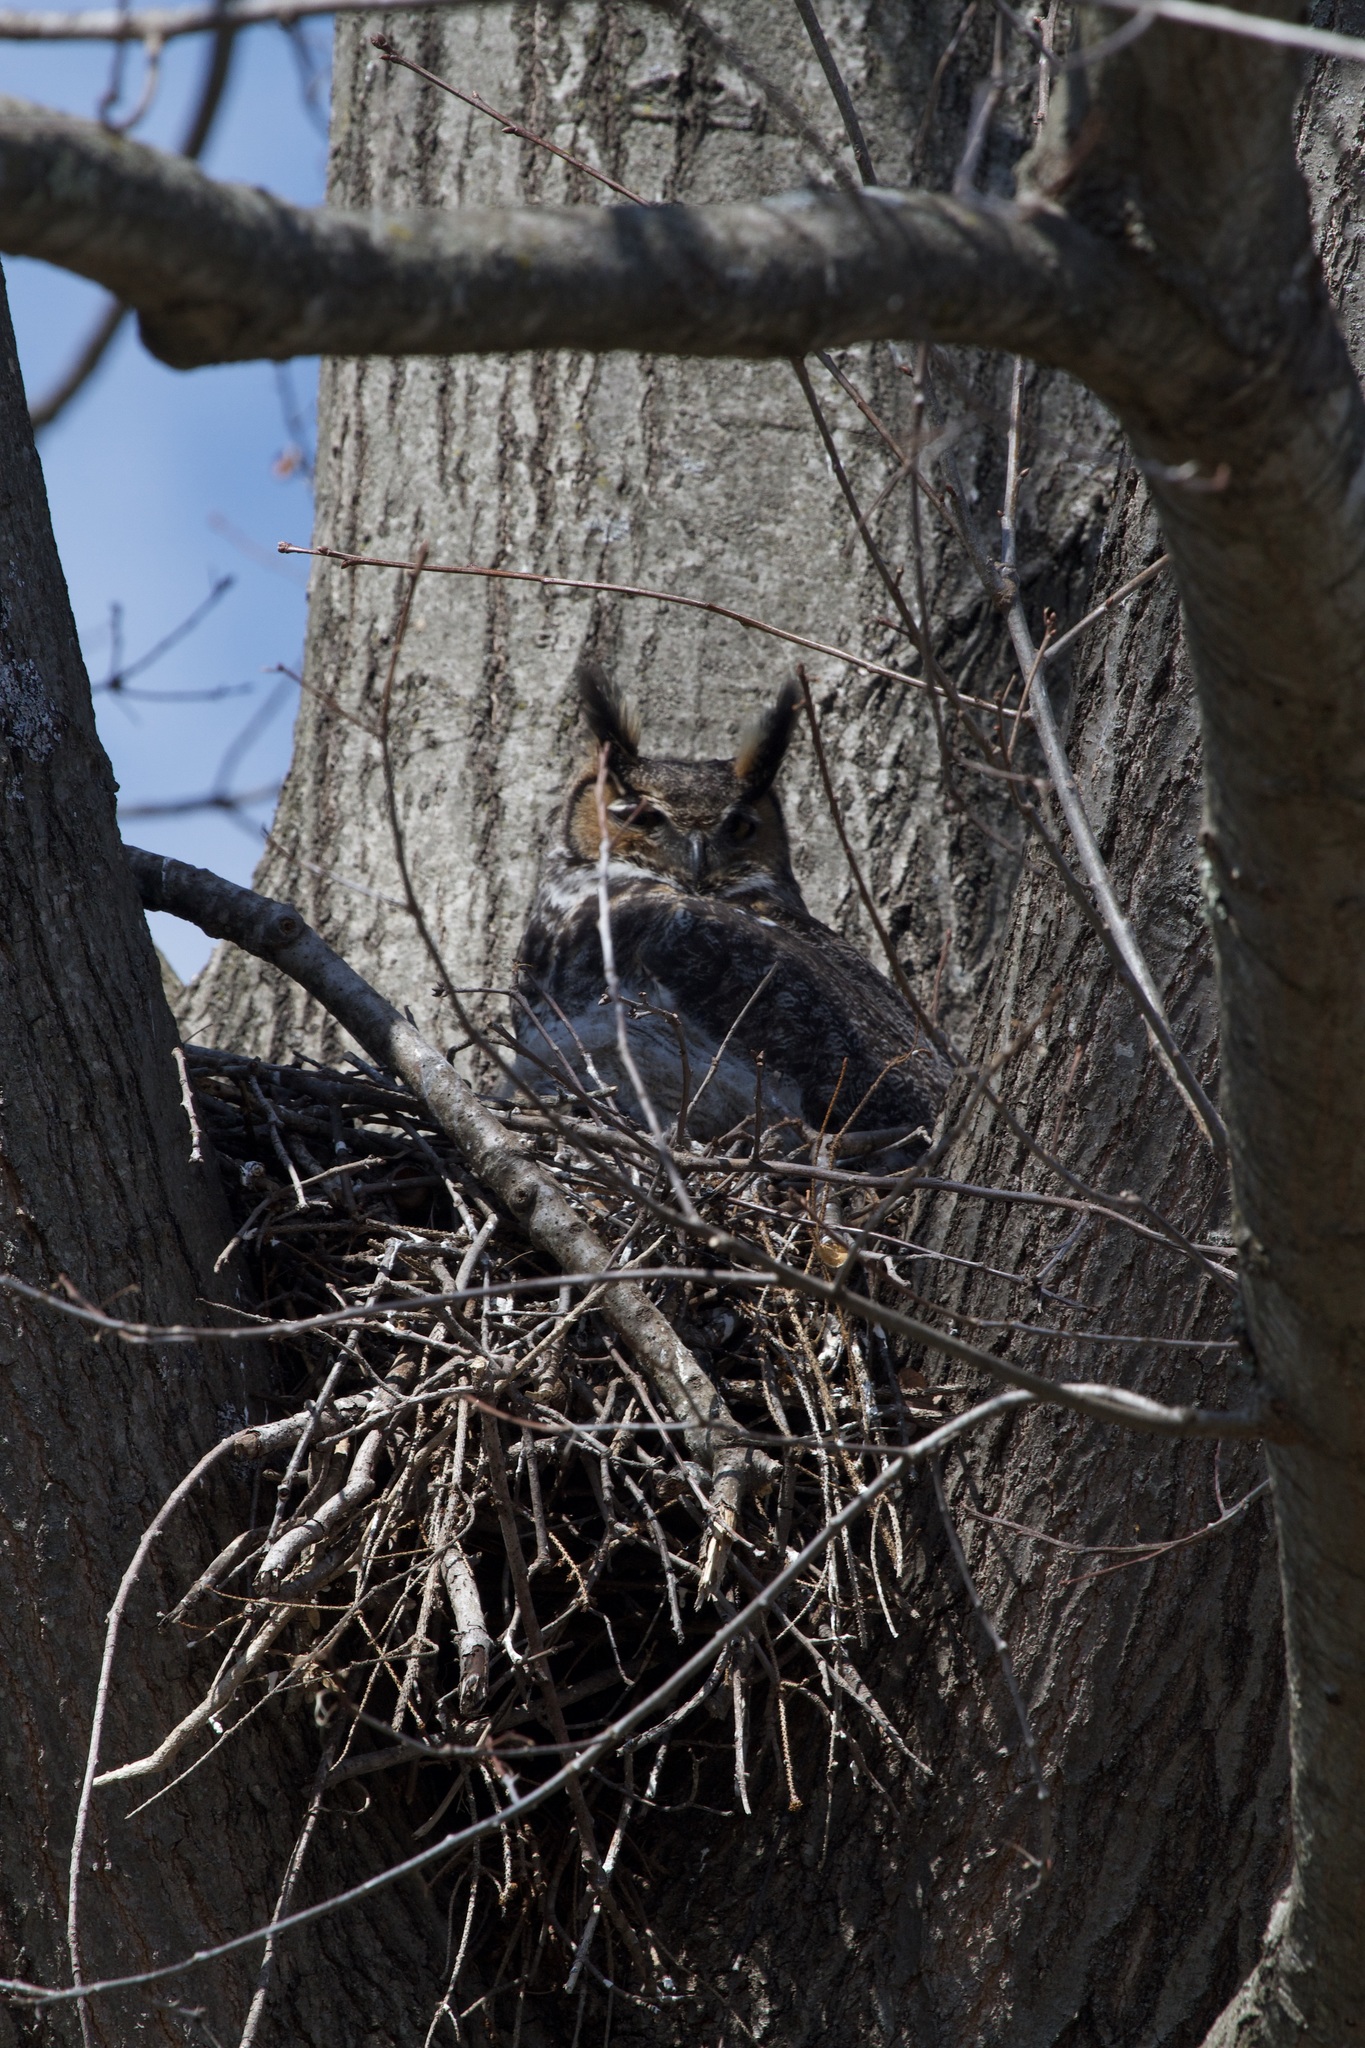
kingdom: Animalia
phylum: Chordata
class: Aves
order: Strigiformes
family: Strigidae
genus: Bubo
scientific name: Bubo virginianus
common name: Great horned owl
